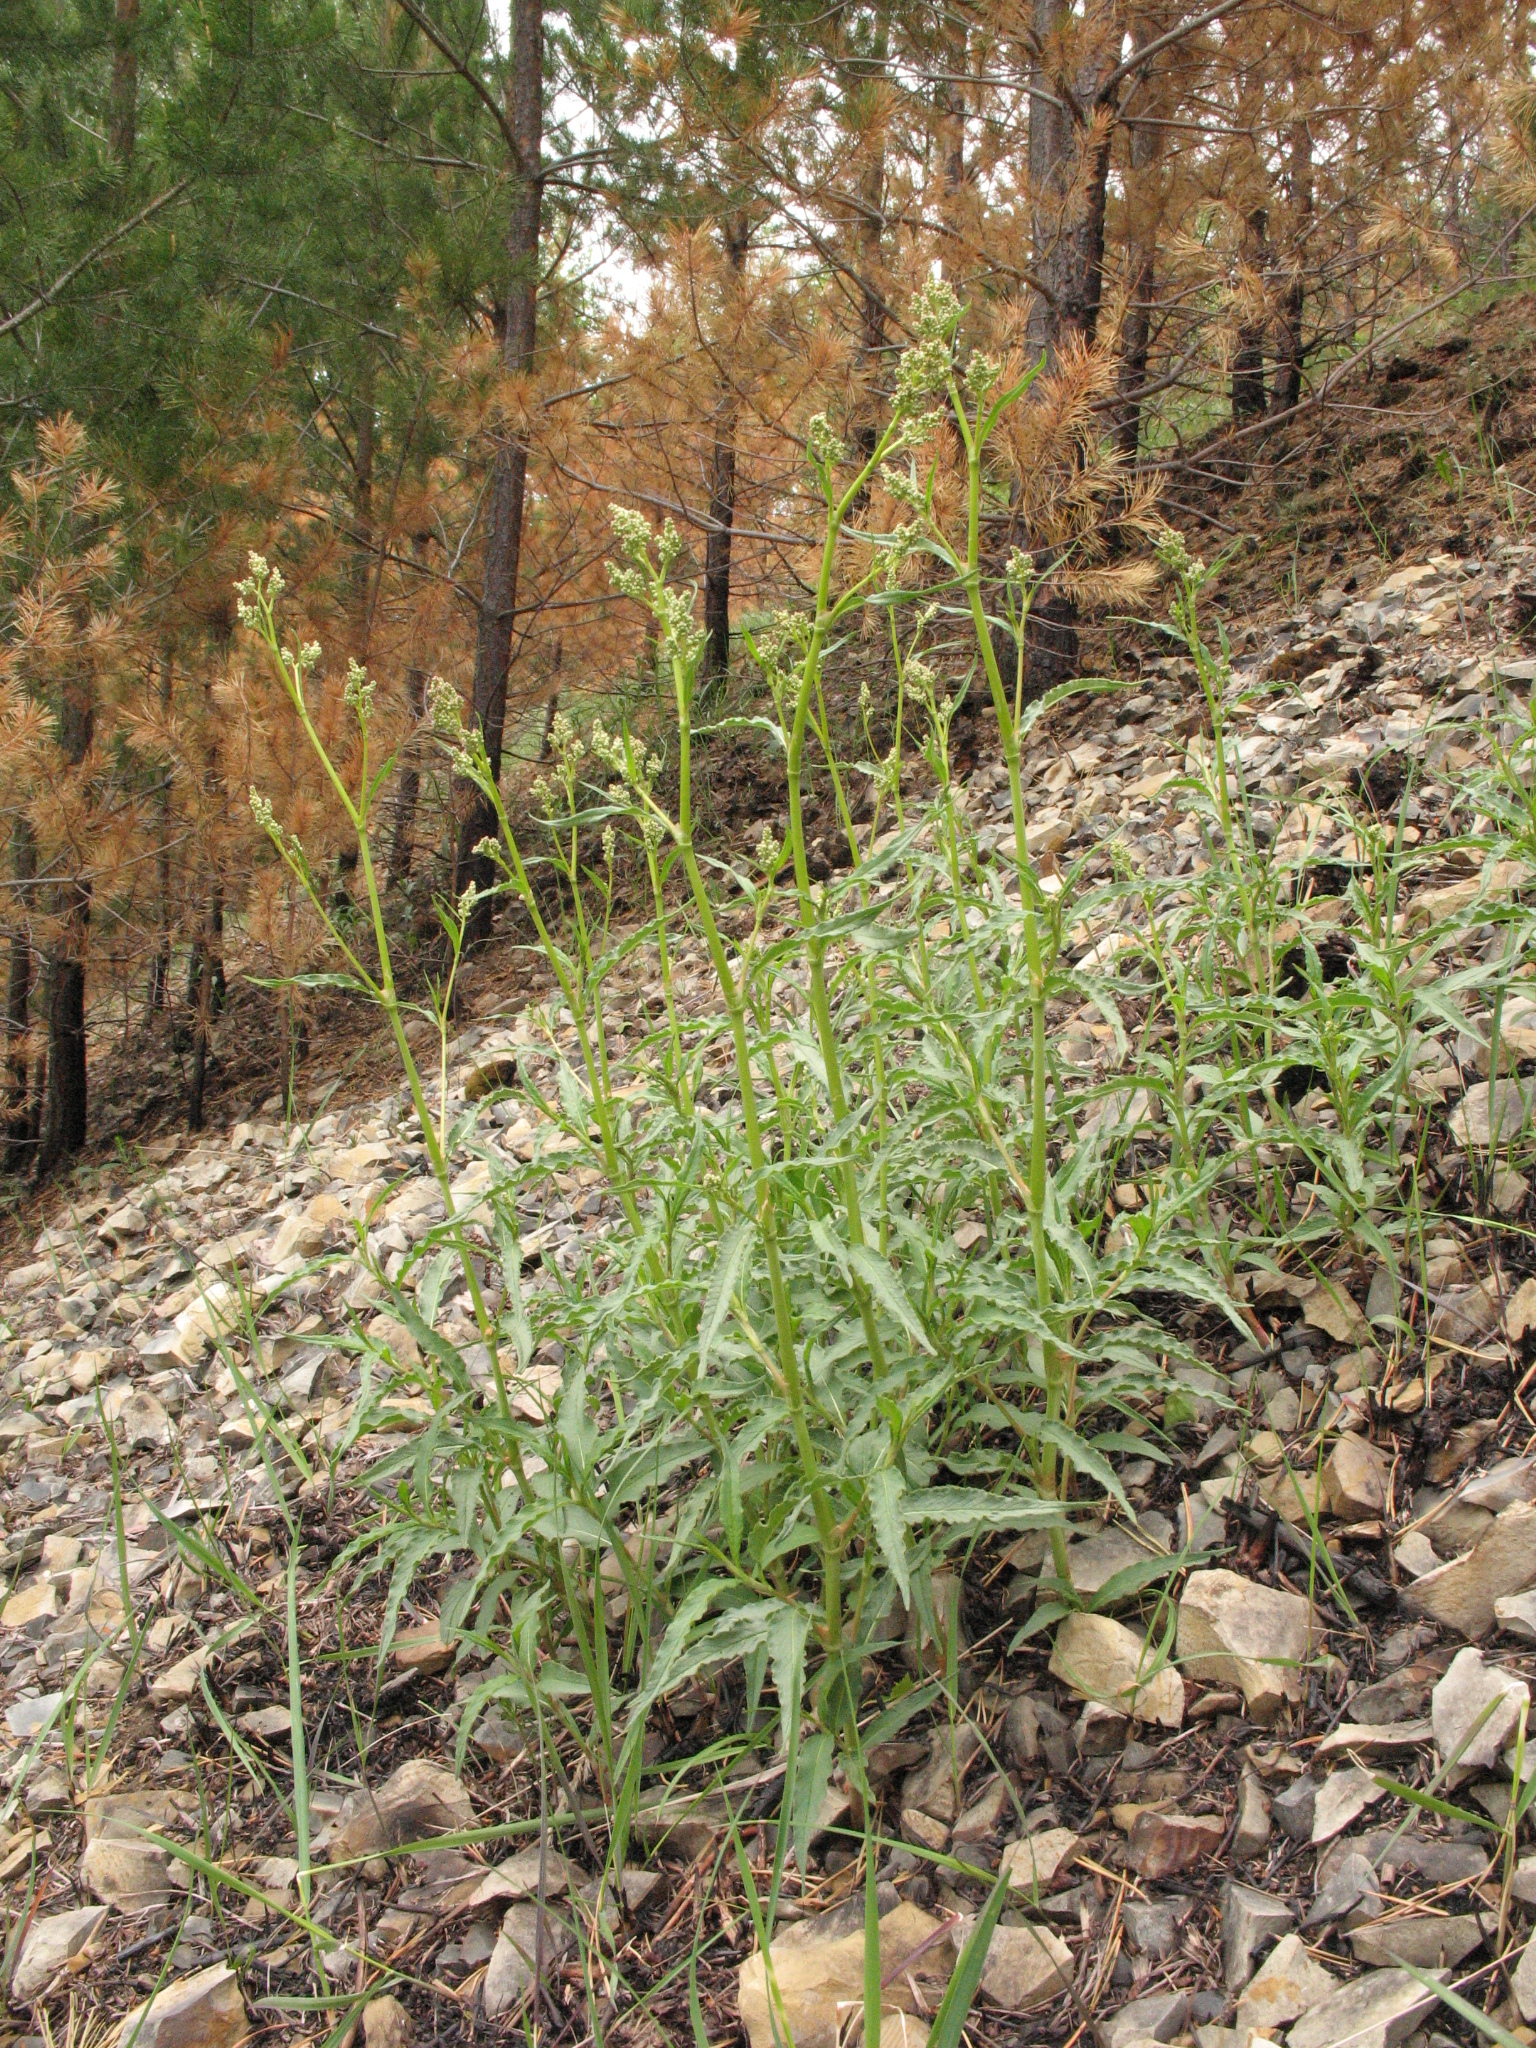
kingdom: Plantae
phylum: Tracheophyta
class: Magnoliopsida
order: Caryophyllales
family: Polygonaceae
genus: Koenigia
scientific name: Koenigia alpina
